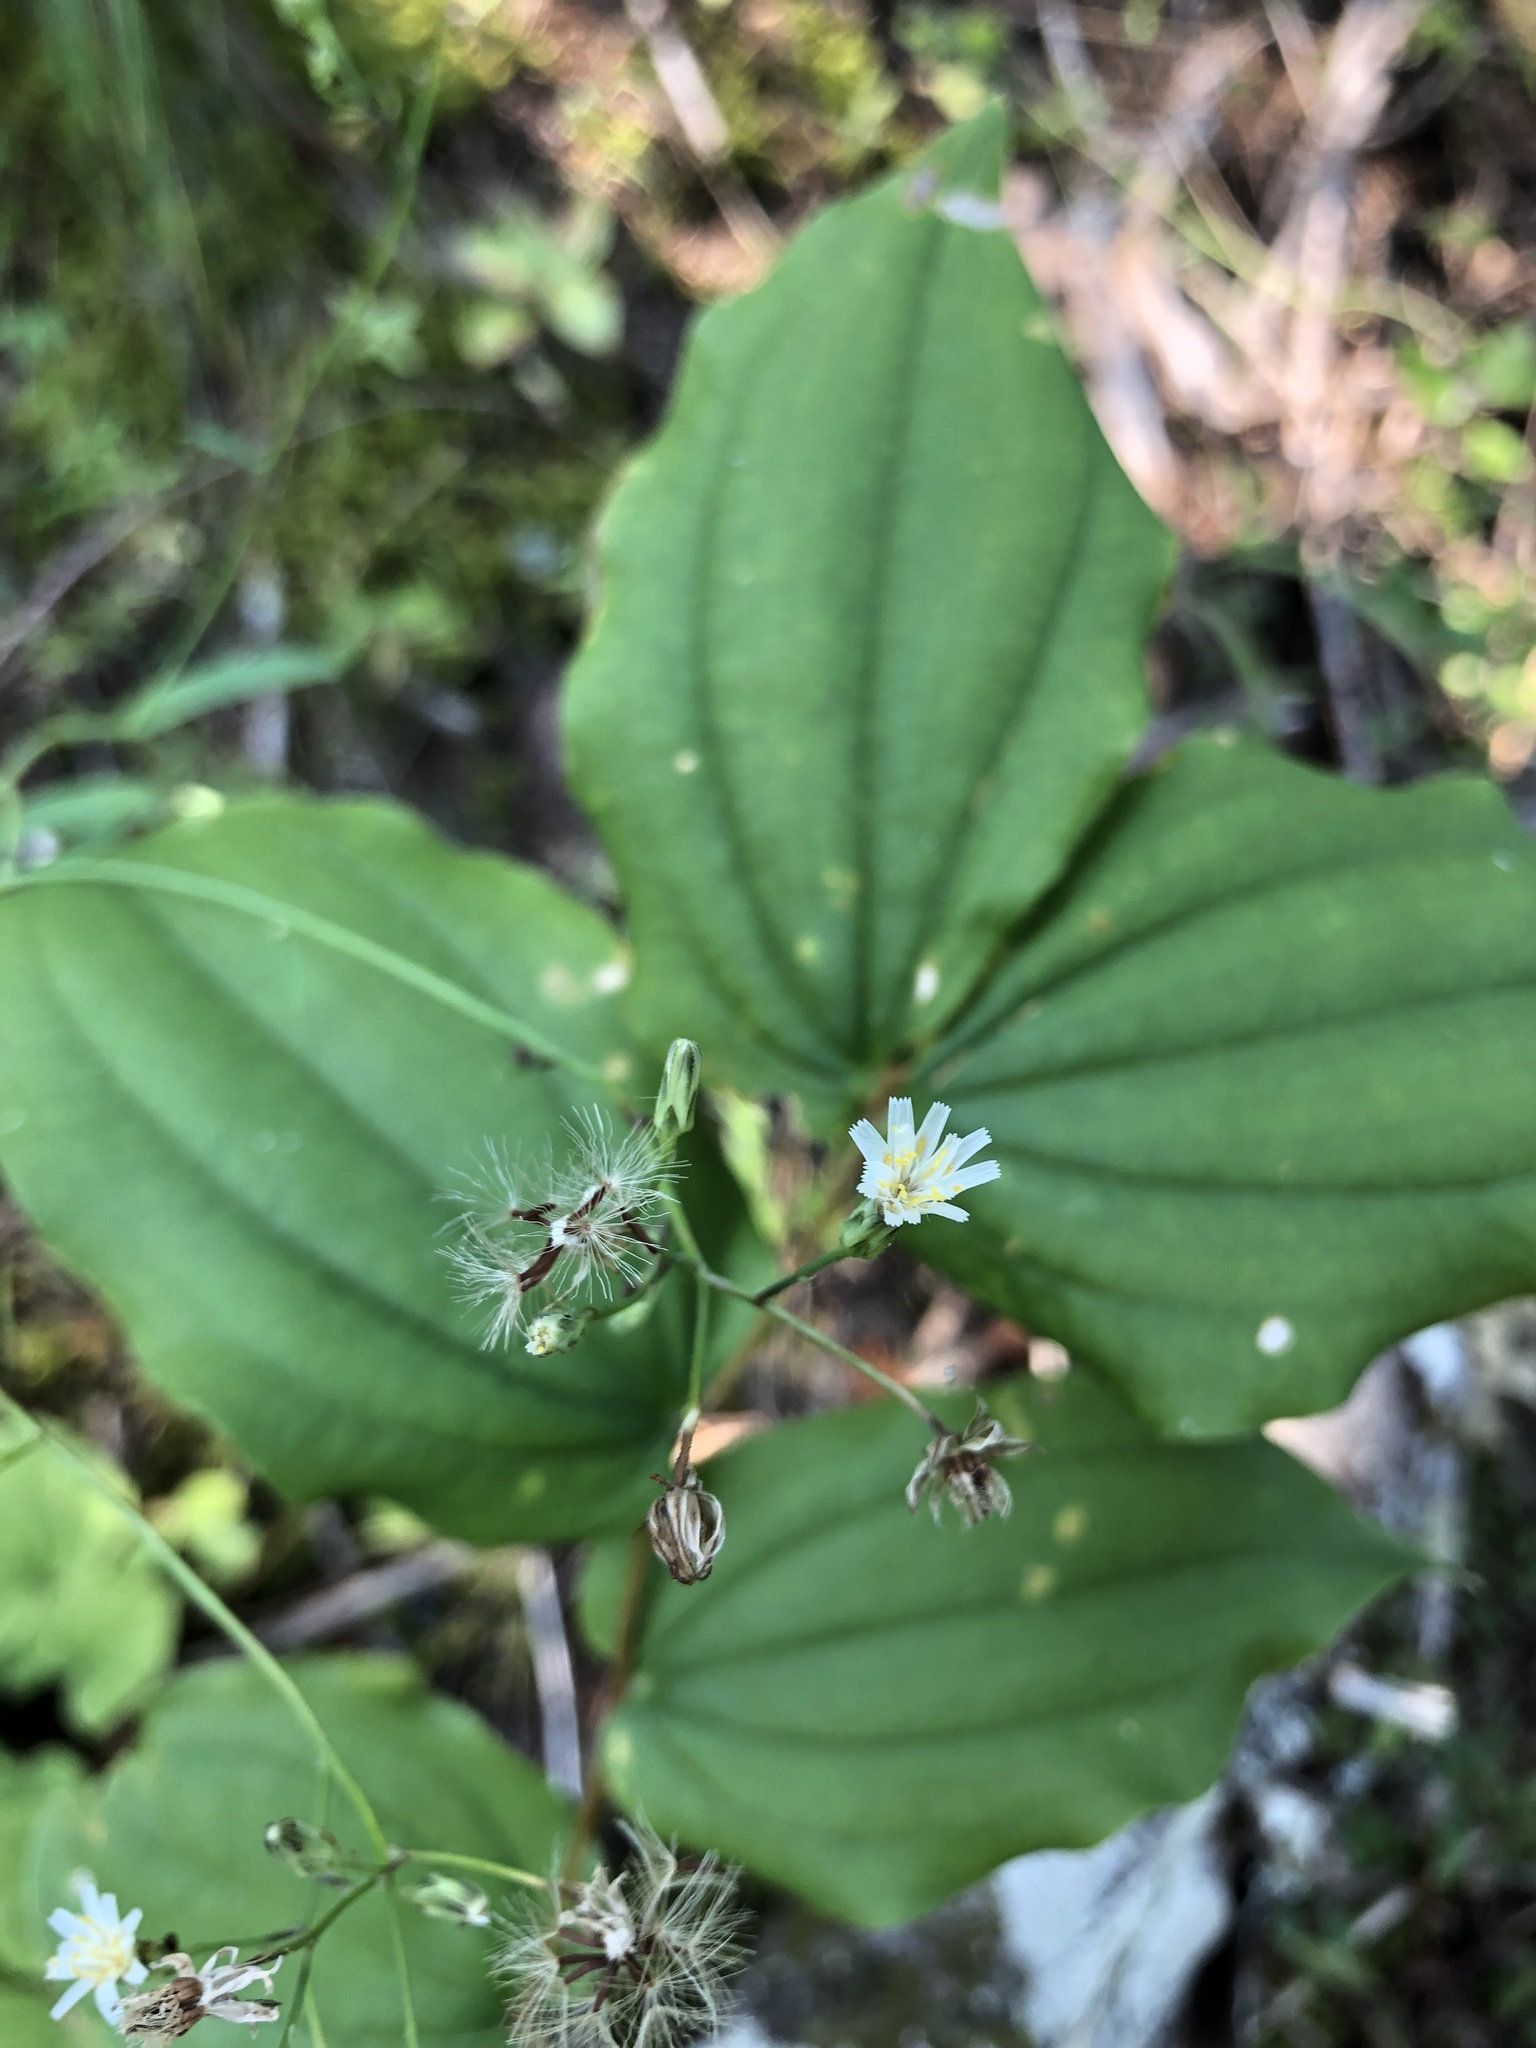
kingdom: Plantae
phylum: Tracheophyta
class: Magnoliopsida
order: Asterales
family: Asteraceae
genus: Hieracium
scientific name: Hieracium albiflorum
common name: White hawkweed
